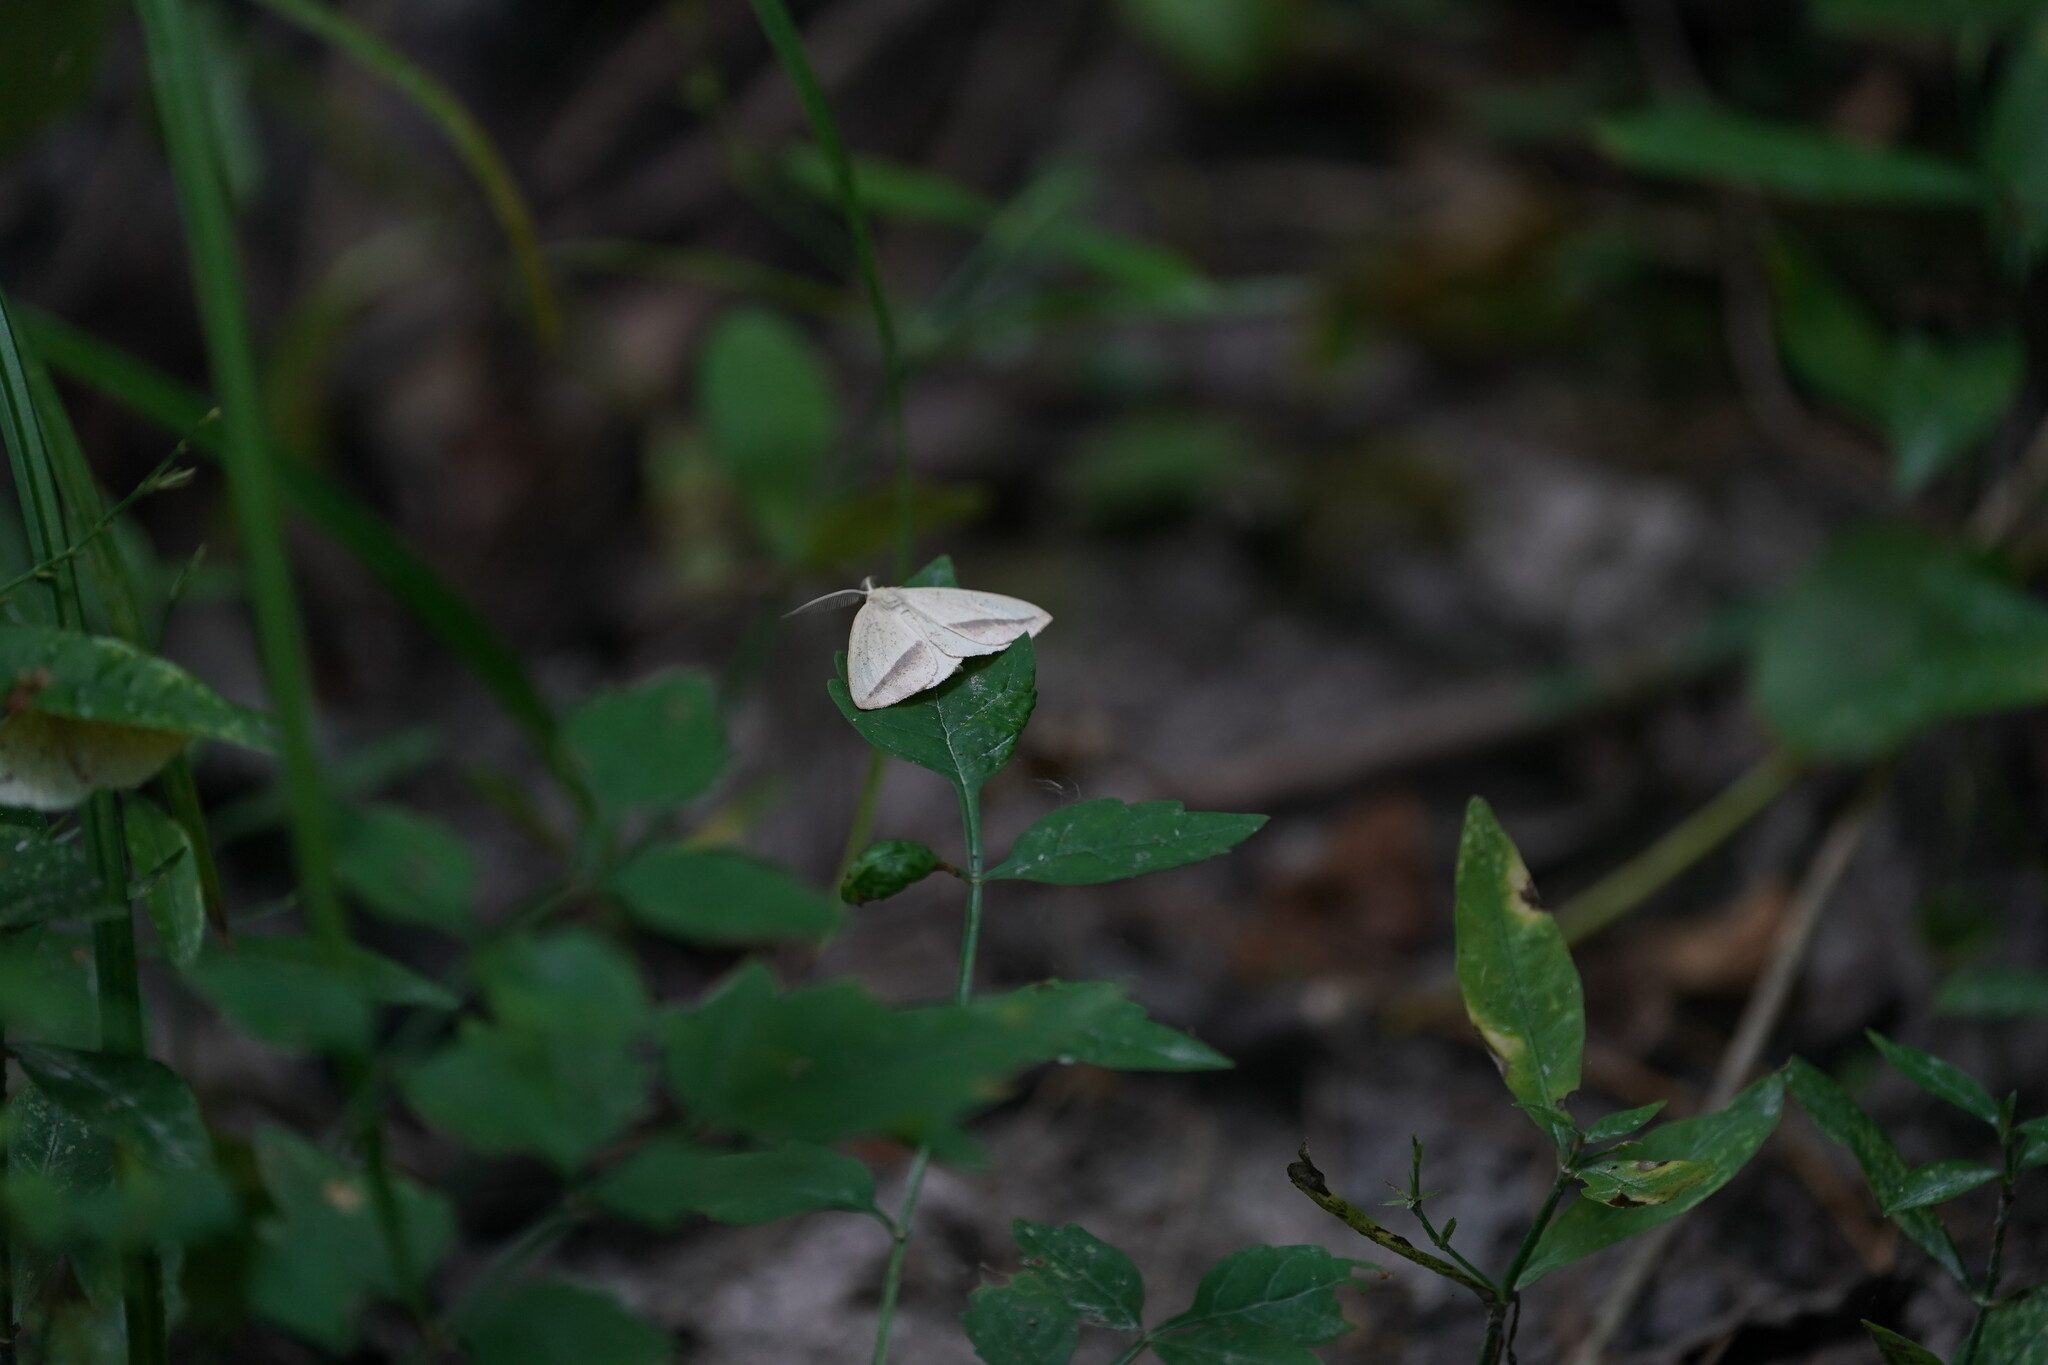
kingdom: Animalia
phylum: Arthropoda
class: Insecta
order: Lepidoptera
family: Geometridae
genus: Lychnosea
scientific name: Lychnosea intermicata
